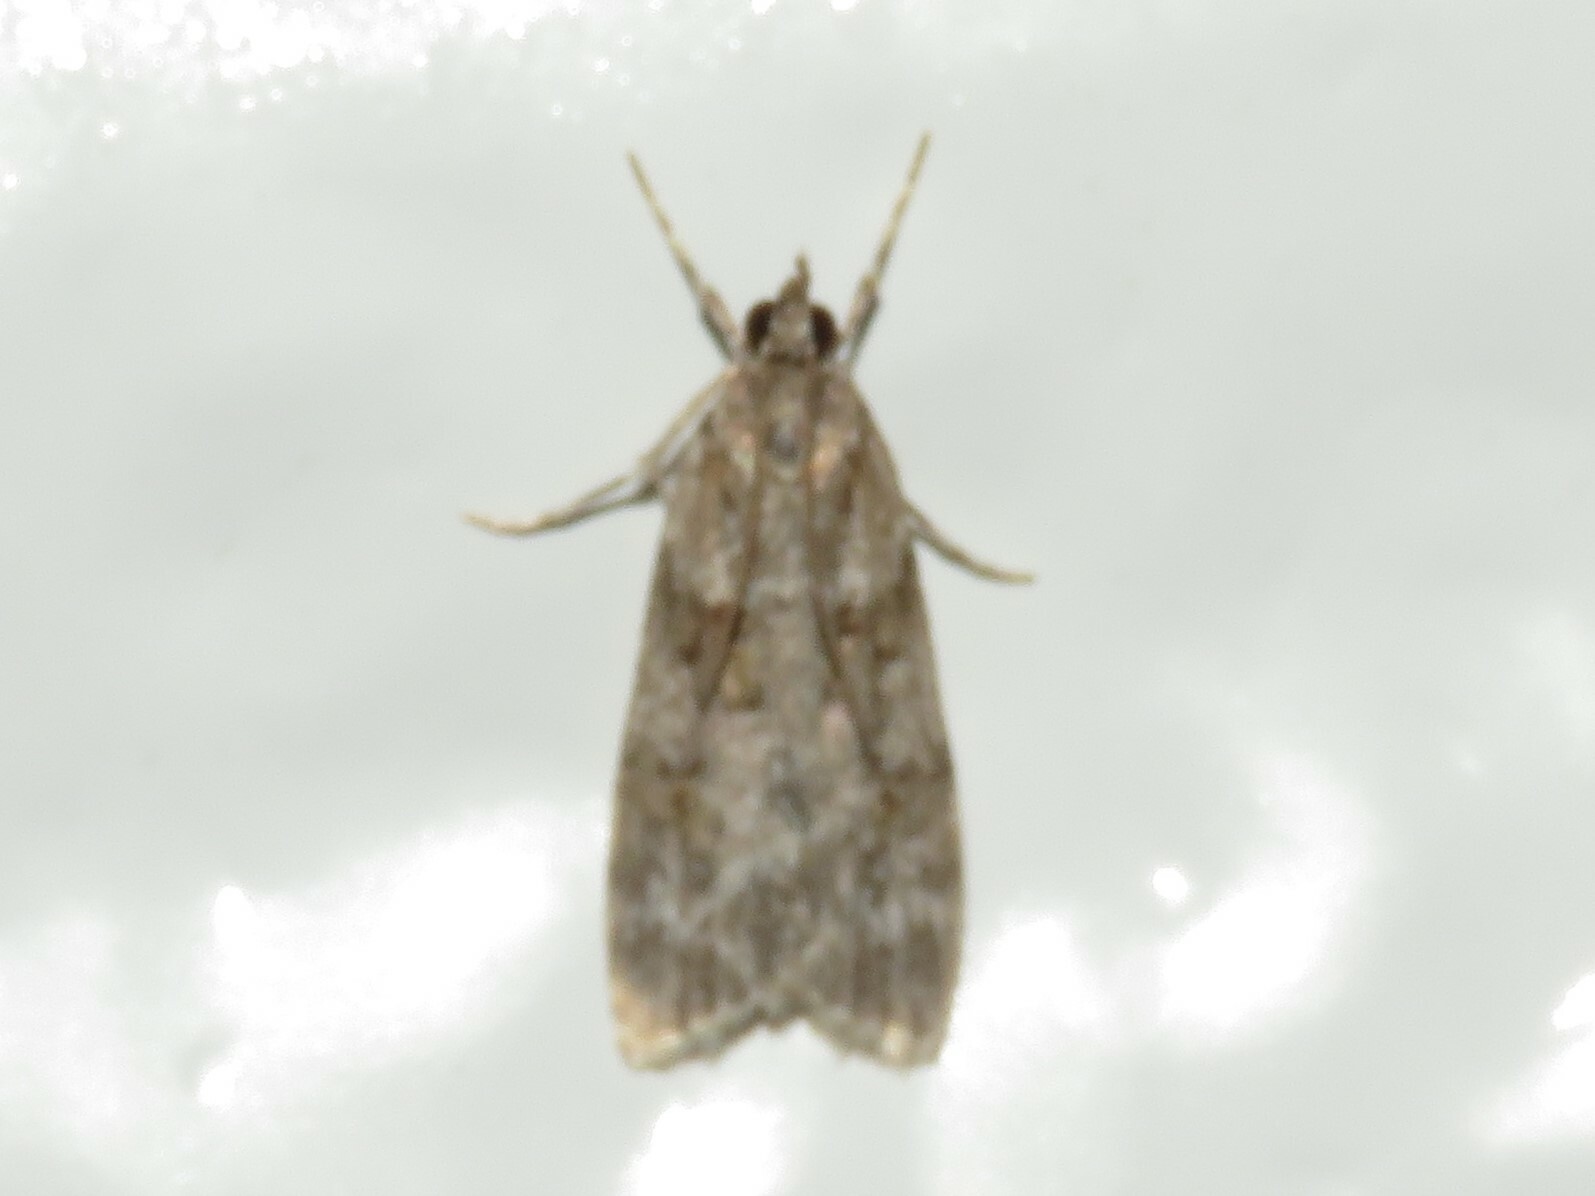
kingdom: Animalia
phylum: Arthropoda
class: Insecta
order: Lepidoptera
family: Crambidae
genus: Scoparia
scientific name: Scoparia biplagialis
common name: Double-striped scoparia moth
